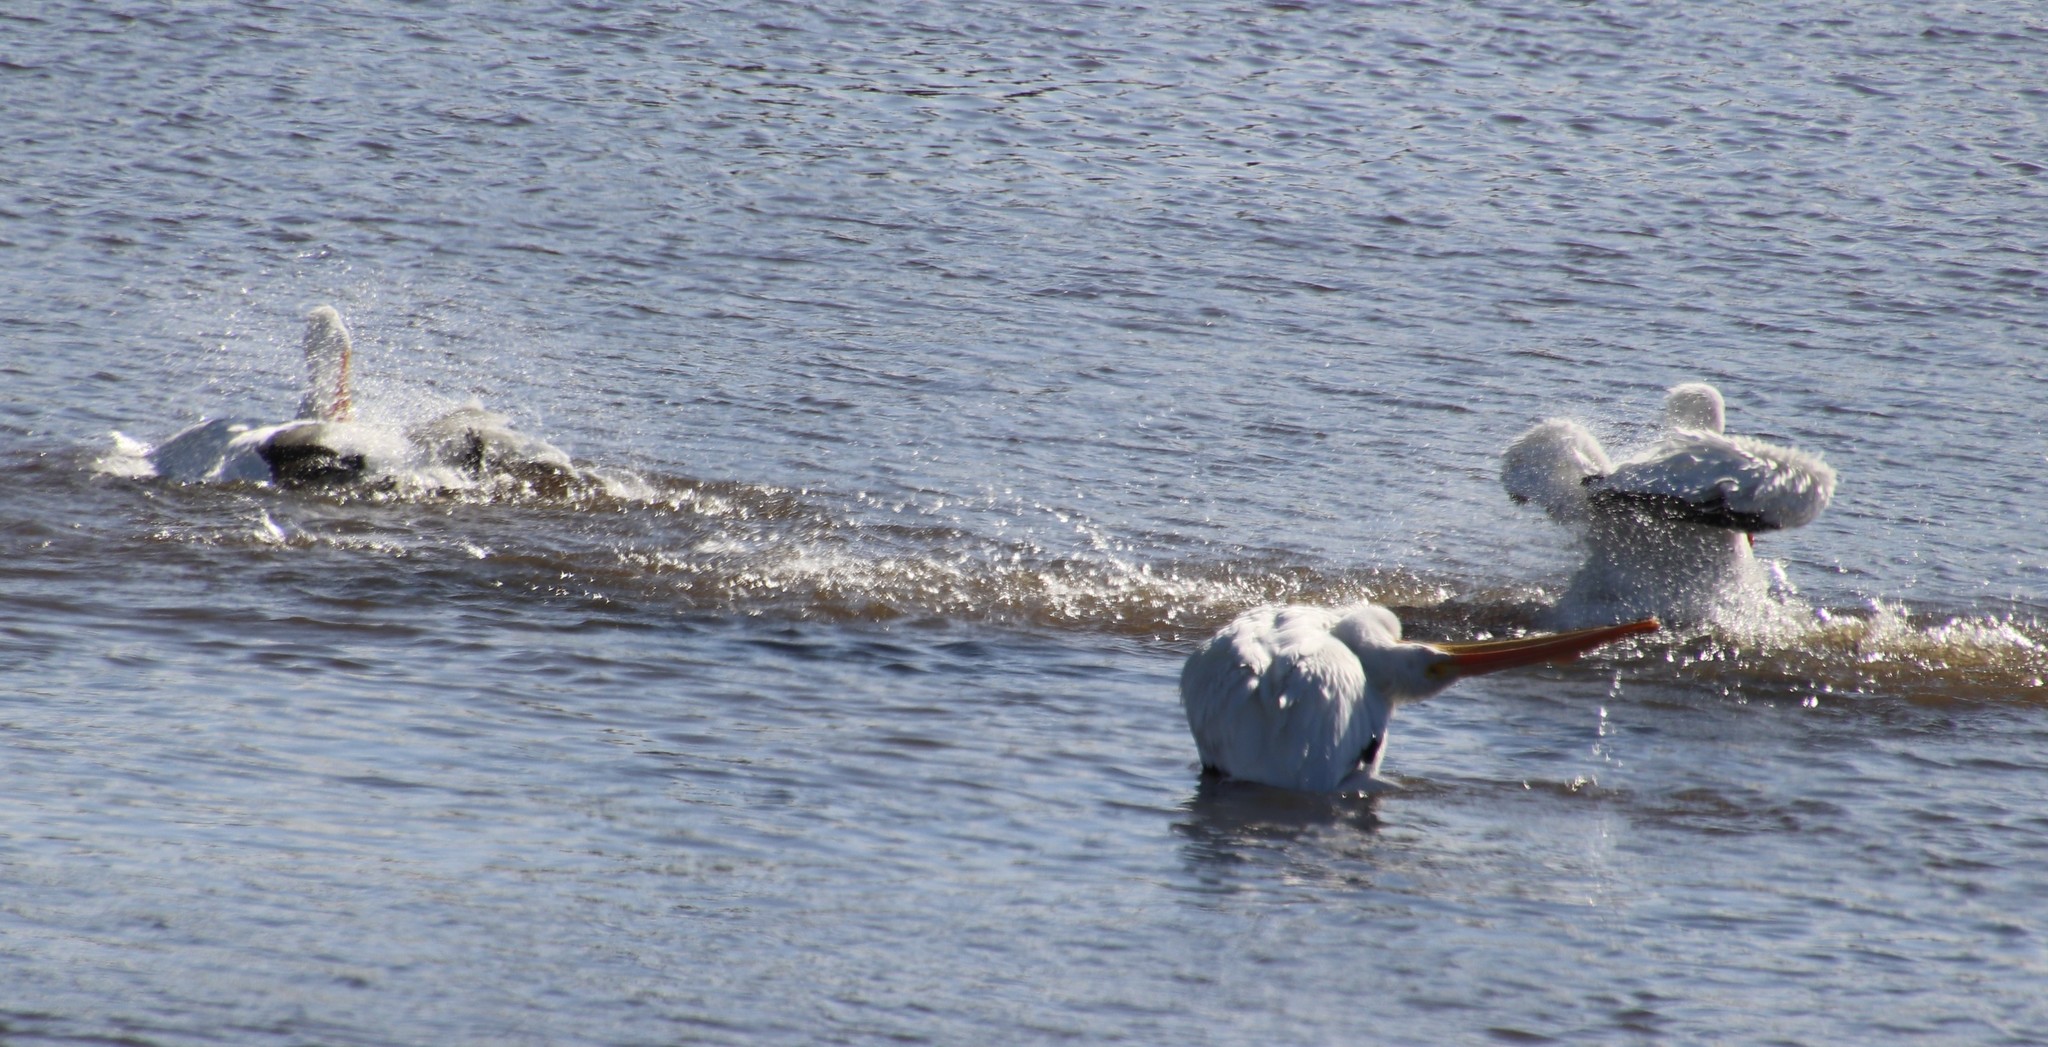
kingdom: Animalia
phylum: Chordata
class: Aves
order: Pelecaniformes
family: Pelecanidae
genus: Pelecanus
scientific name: Pelecanus erythrorhynchos
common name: American white pelican
